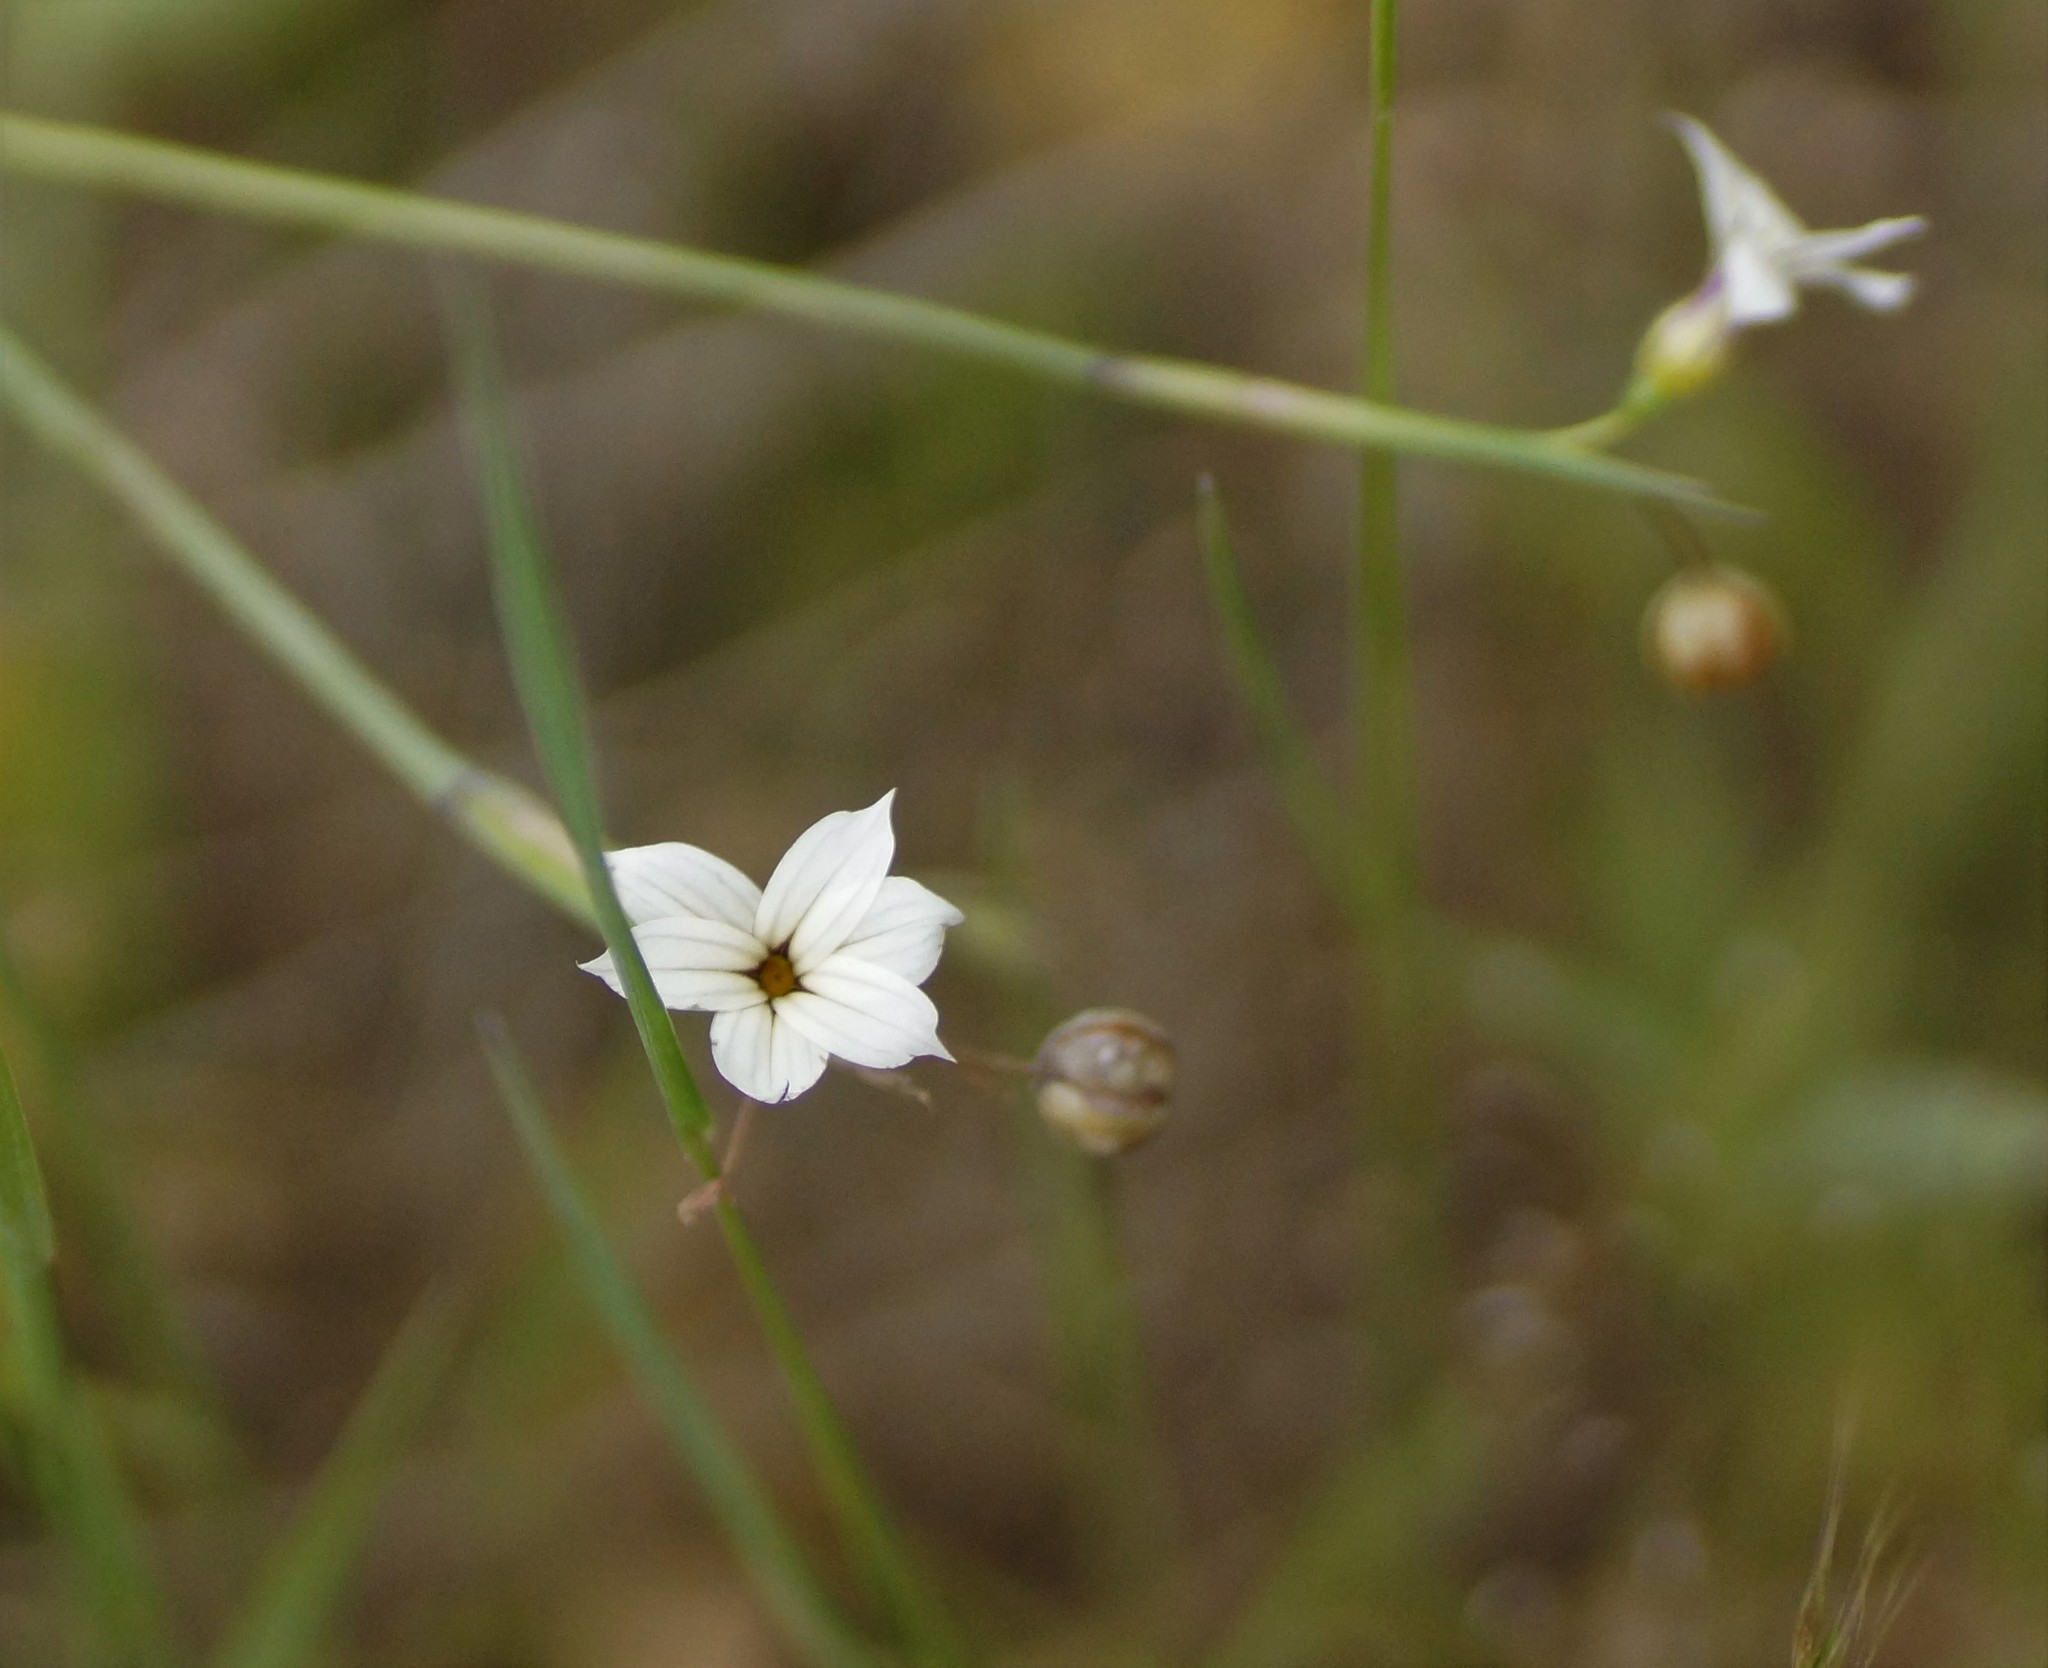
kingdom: Plantae
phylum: Tracheophyta
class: Liliopsida
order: Asparagales
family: Iridaceae
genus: Sisyrinchium
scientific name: Sisyrinchium micranthum
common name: Bermuda pigroot
